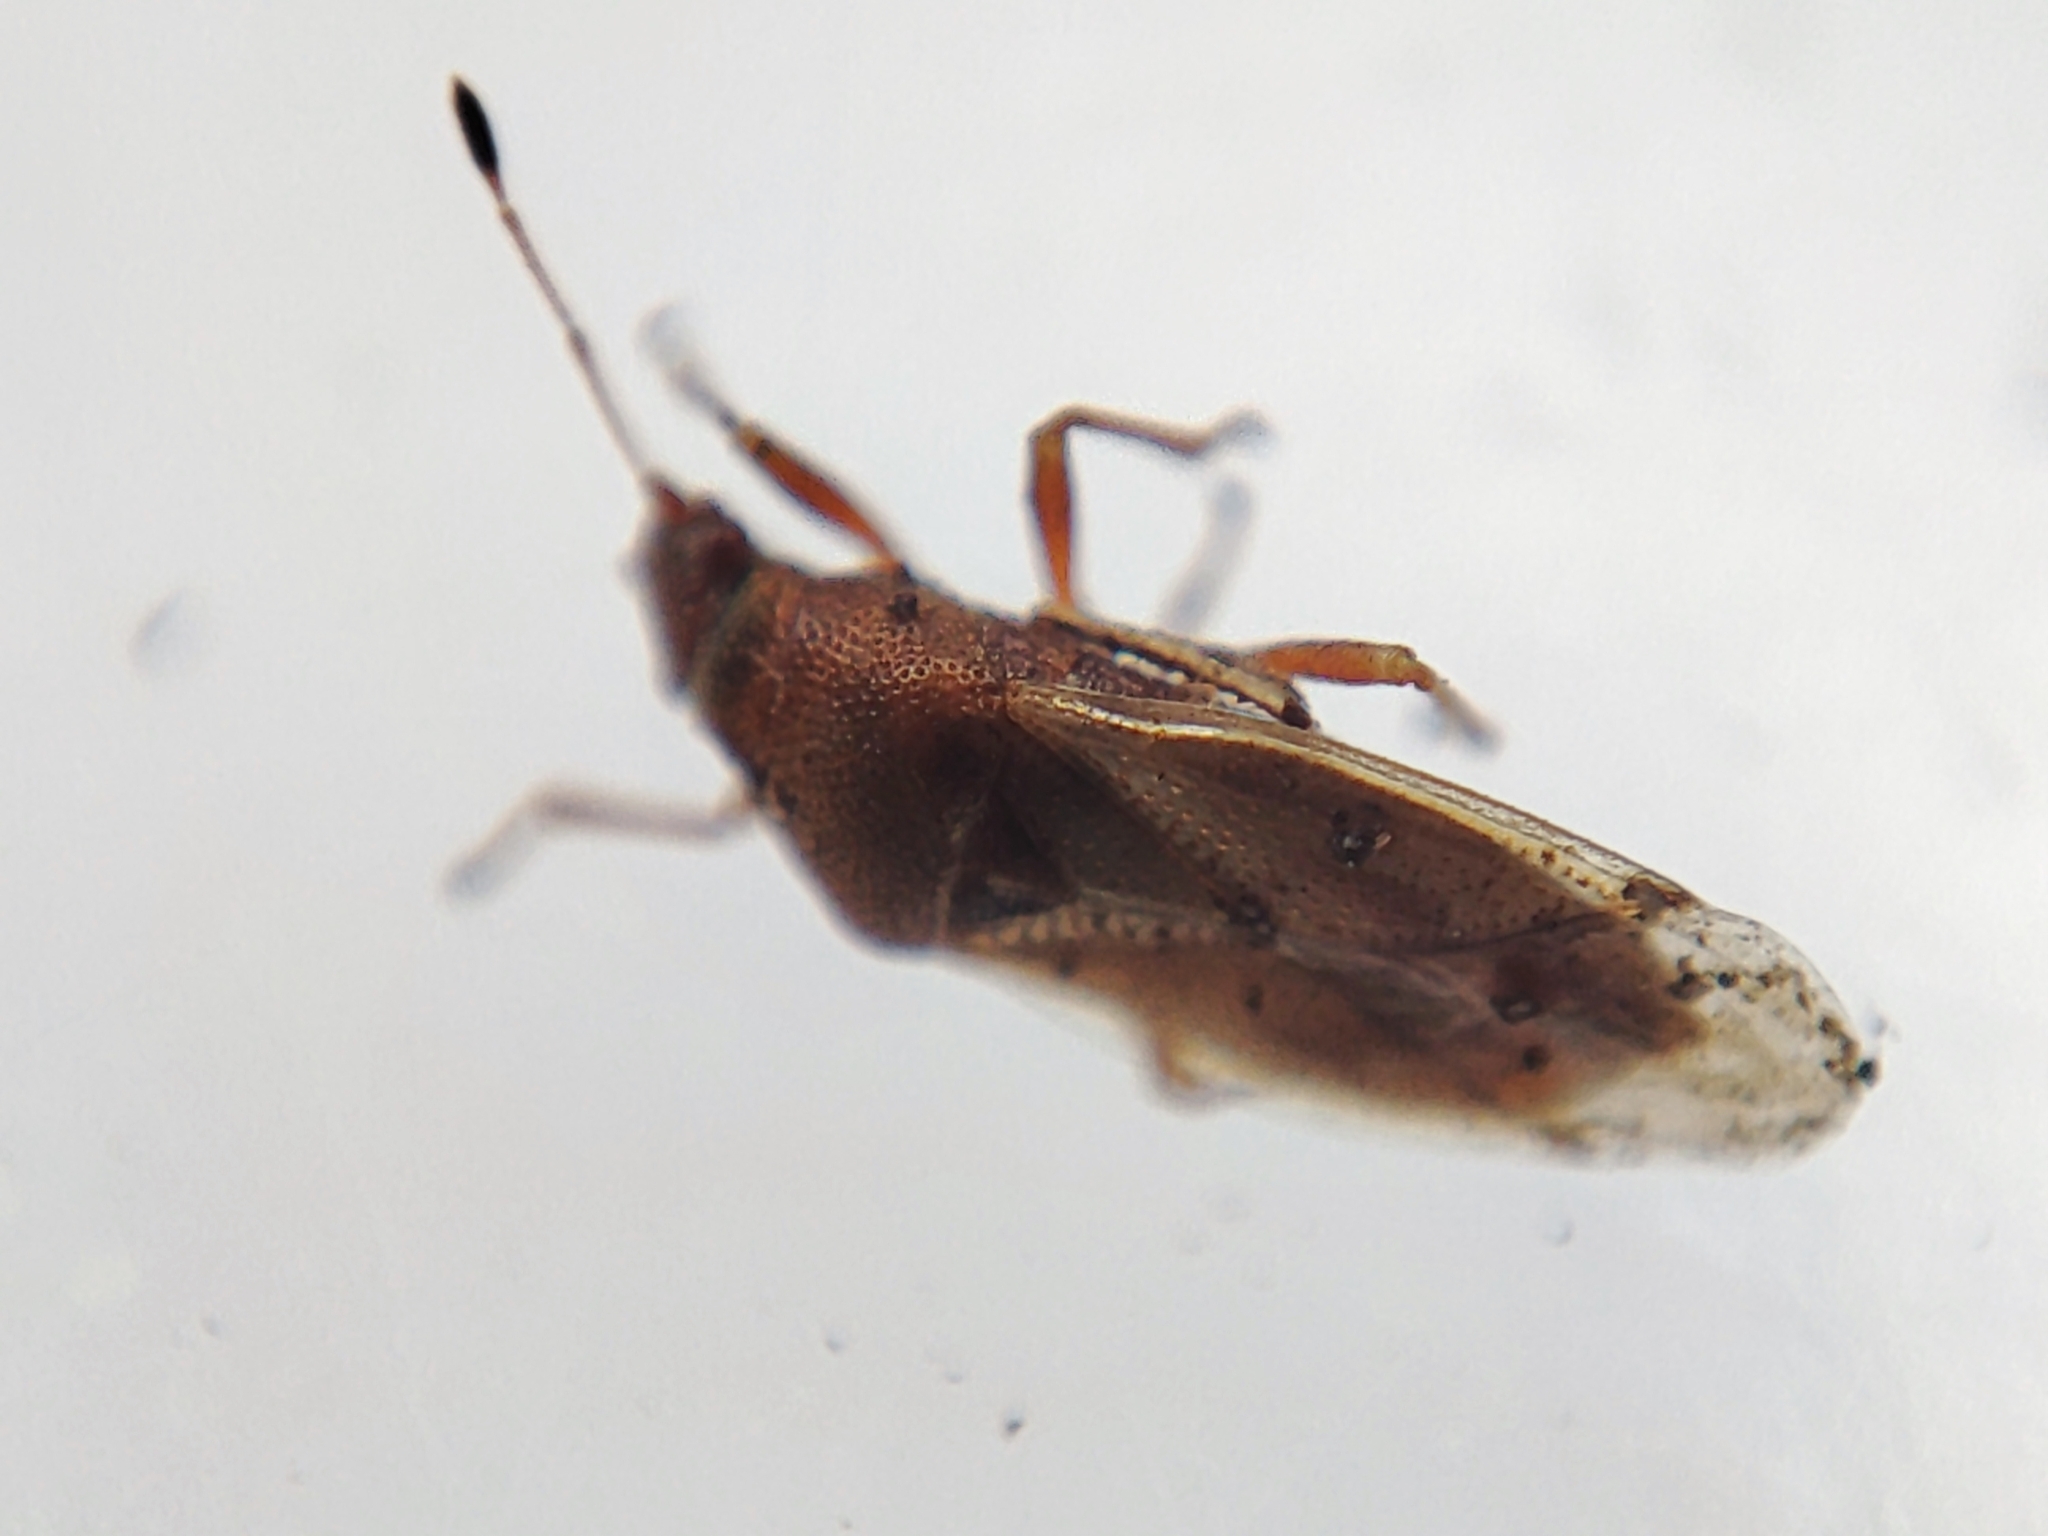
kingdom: Animalia
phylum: Arthropoda
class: Insecta
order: Hemiptera
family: Cymidae
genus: Cymus
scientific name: Cymus aurescens
